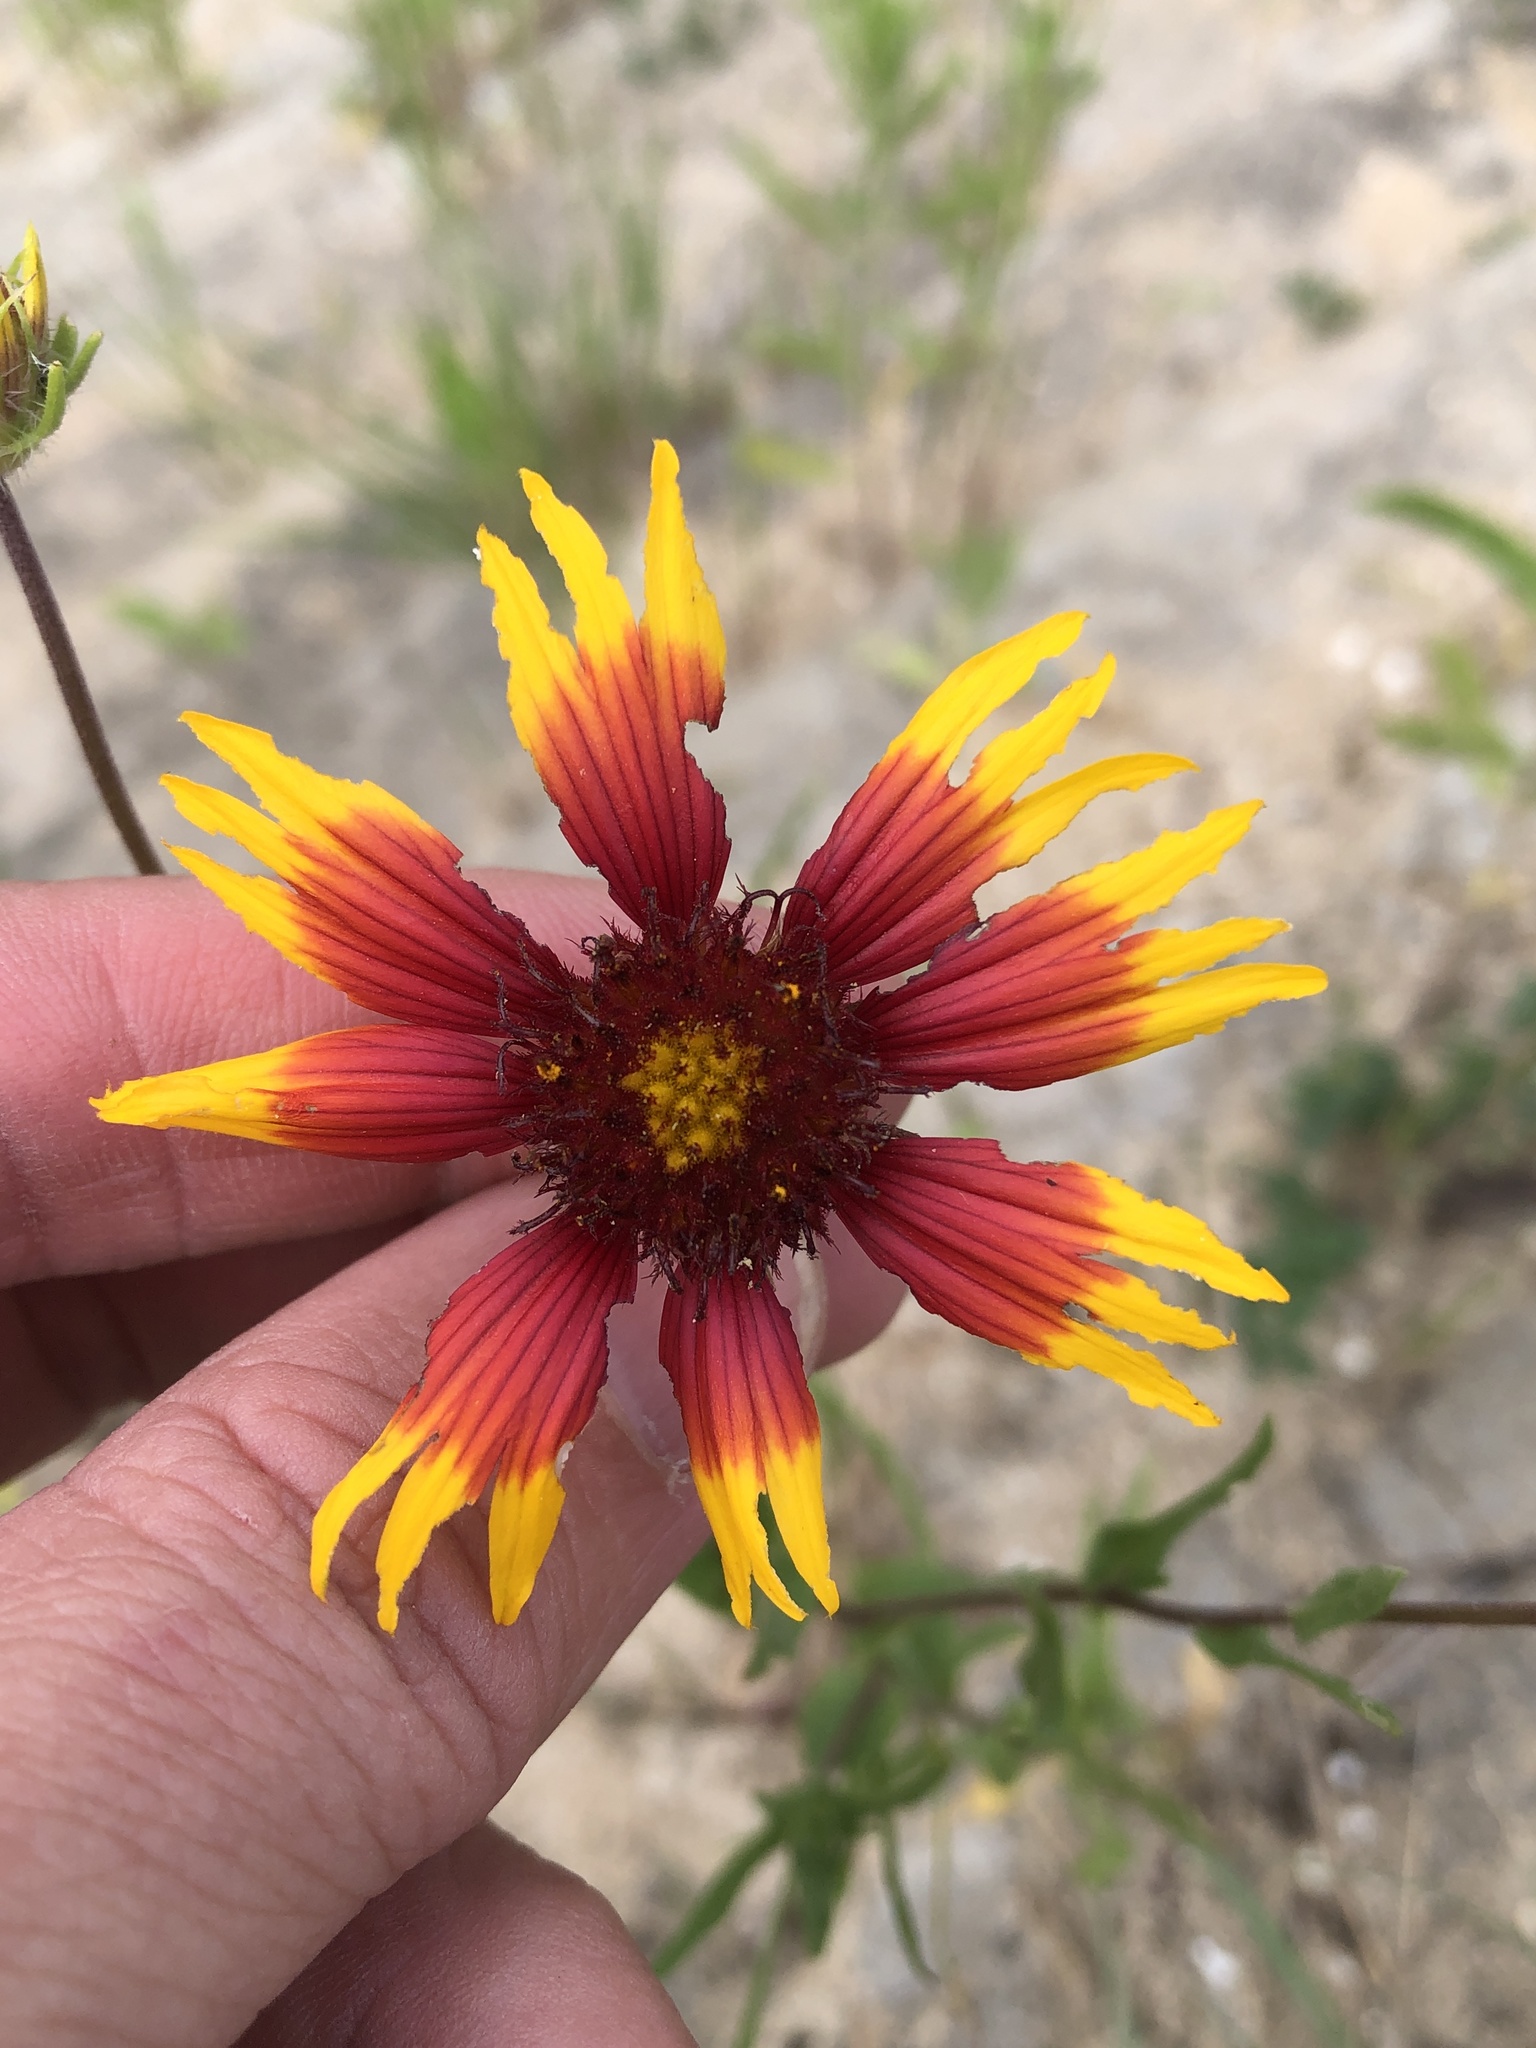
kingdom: Plantae
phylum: Tracheophyta
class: Magnoliopsida
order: Asterales
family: Asteraceae
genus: Gaillardia
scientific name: Gaillardia pulchella
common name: Firewheel
